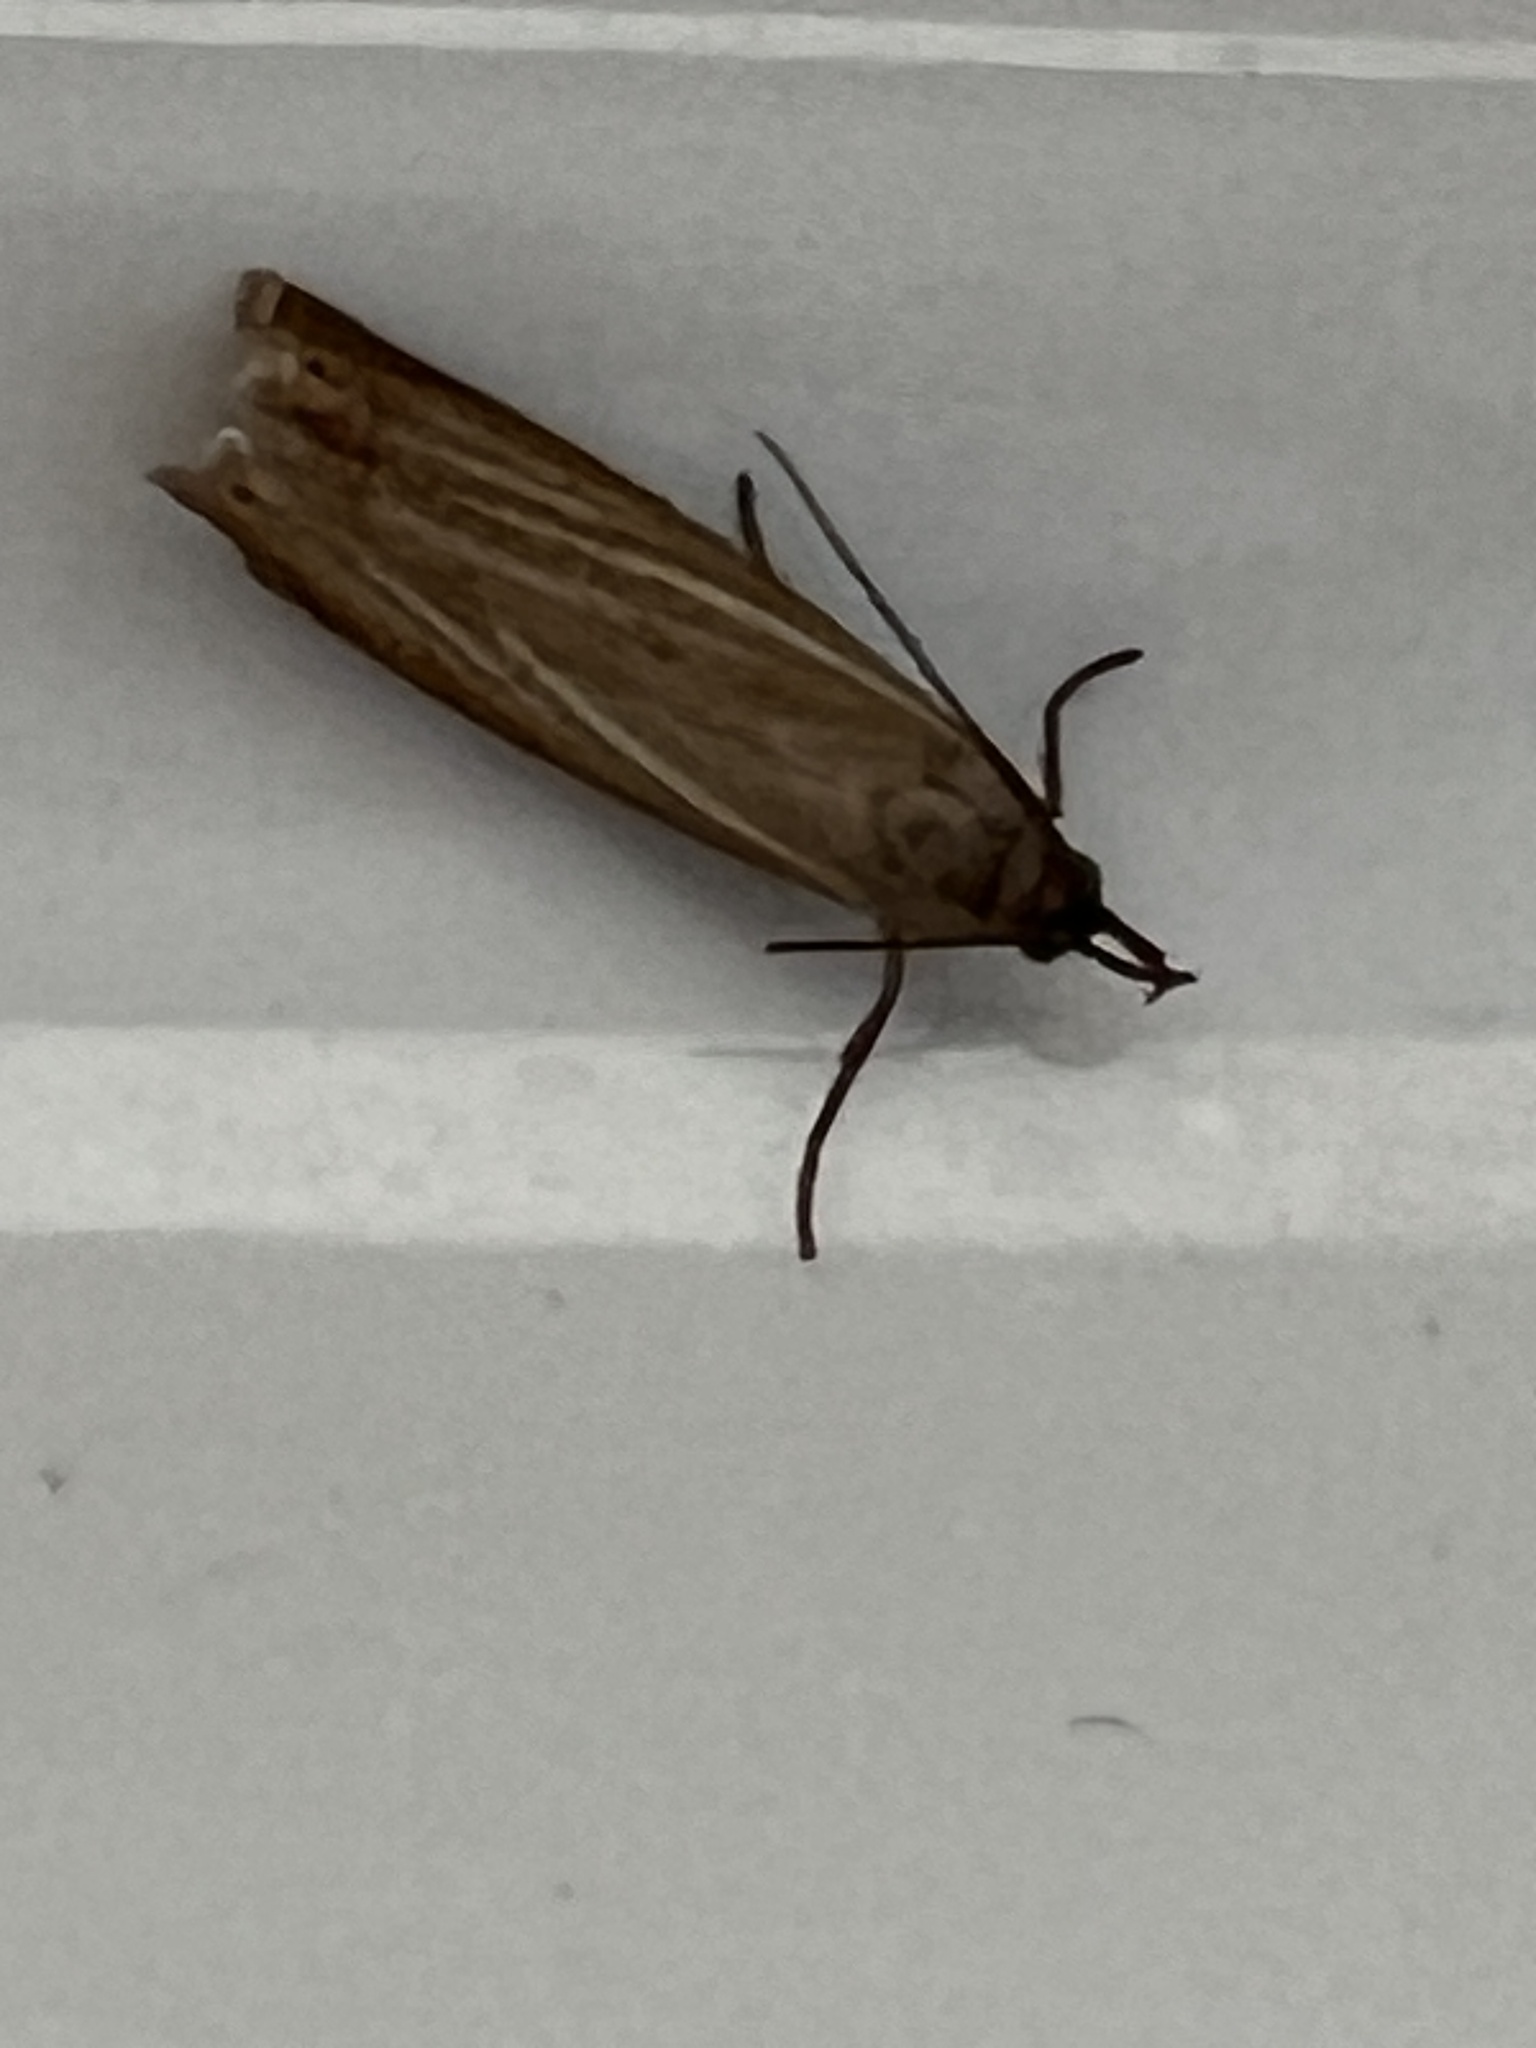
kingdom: Animalia
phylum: Arthropoda
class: Insecta
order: Lepidoptera
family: Crambidae
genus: Chrysoteuchia
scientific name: Chrysoteuchia culmella
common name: Garden grass-veneer
